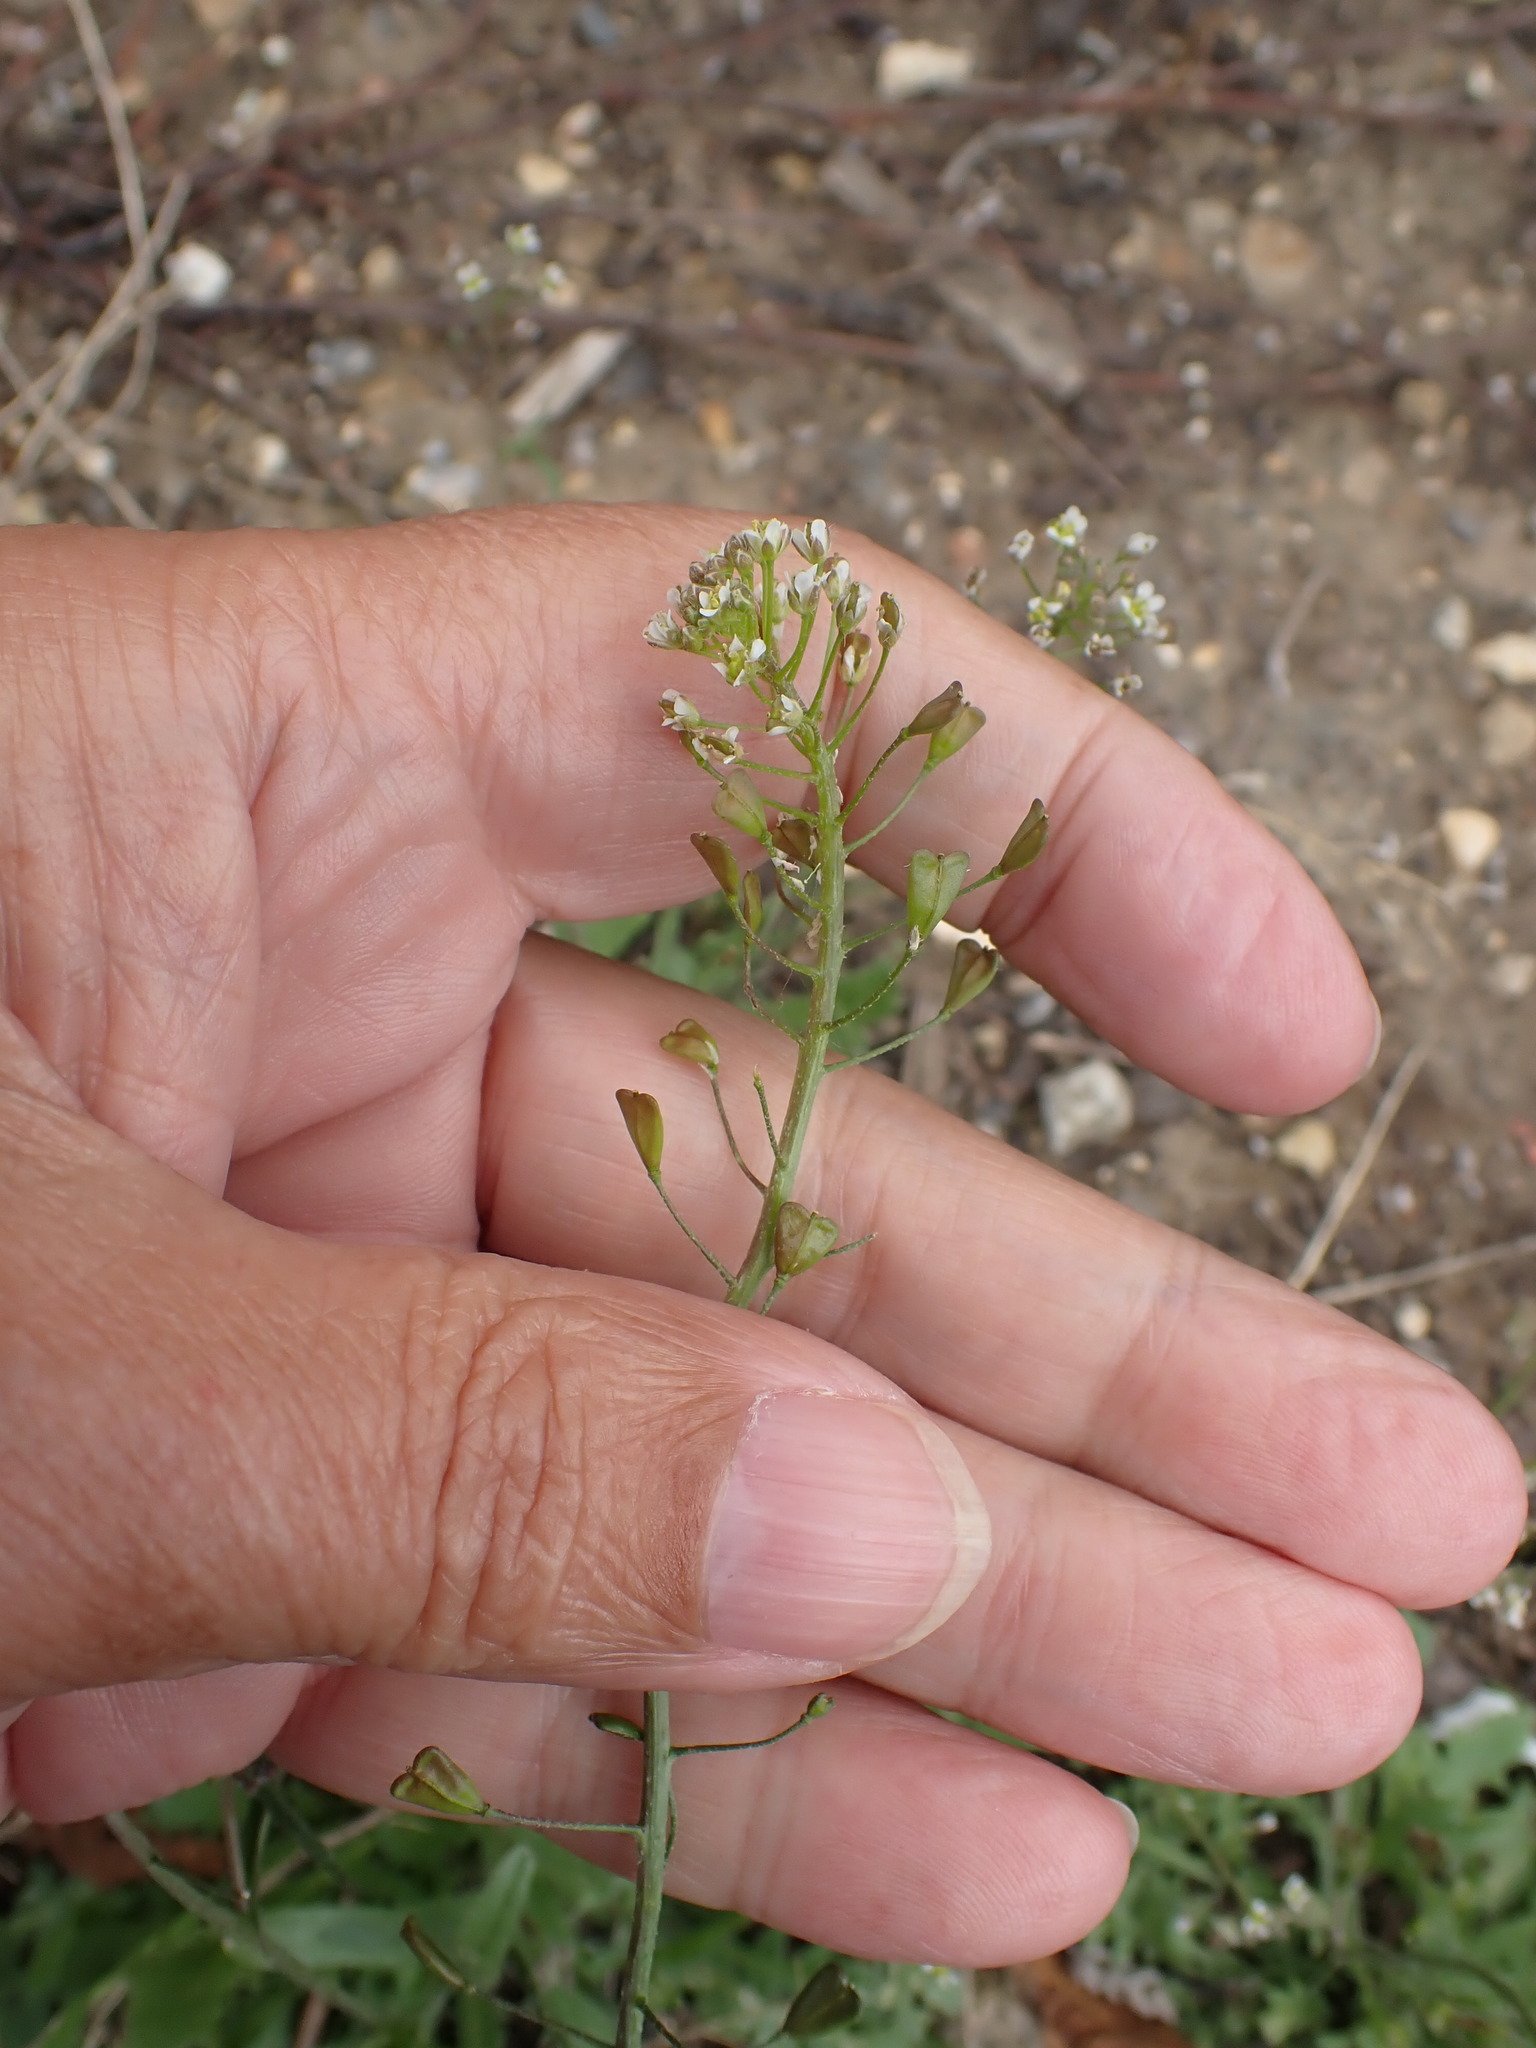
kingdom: Plantae
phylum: Tracheophyta
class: Magnoliopsida
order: Brassicales
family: Brassicaceae
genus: Capsella
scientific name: Capsella bursa-pastoris
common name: Shepherd's purse
